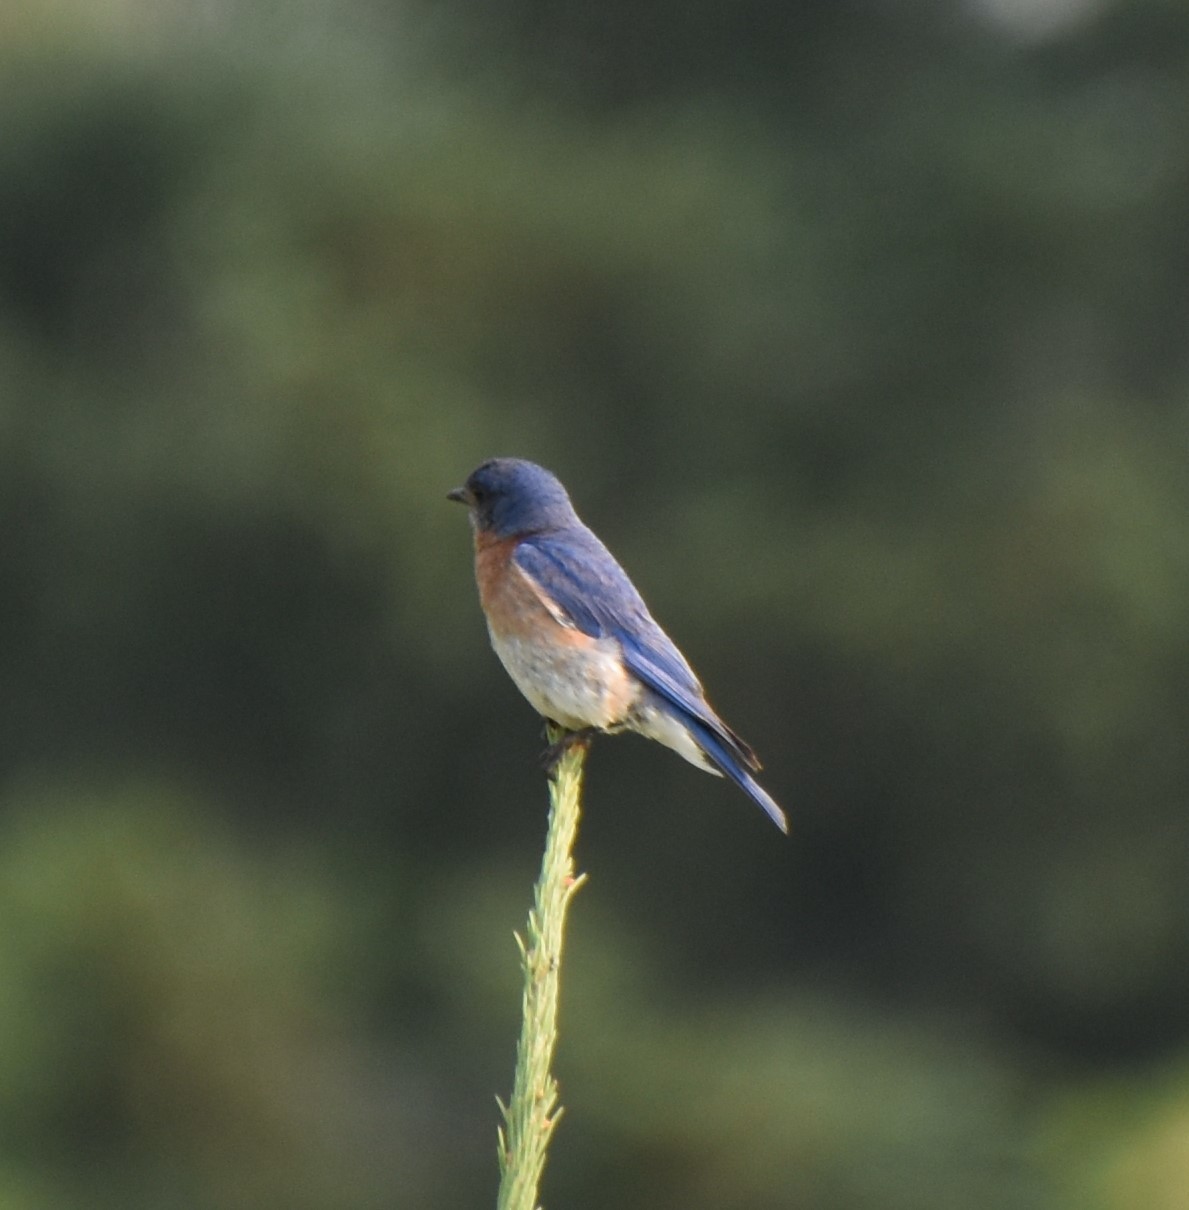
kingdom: Animalia
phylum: Chordata
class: Aves
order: Passeriformes
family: Turdidae
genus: Sialia
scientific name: Sialia sialis
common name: Eastern bluebird
